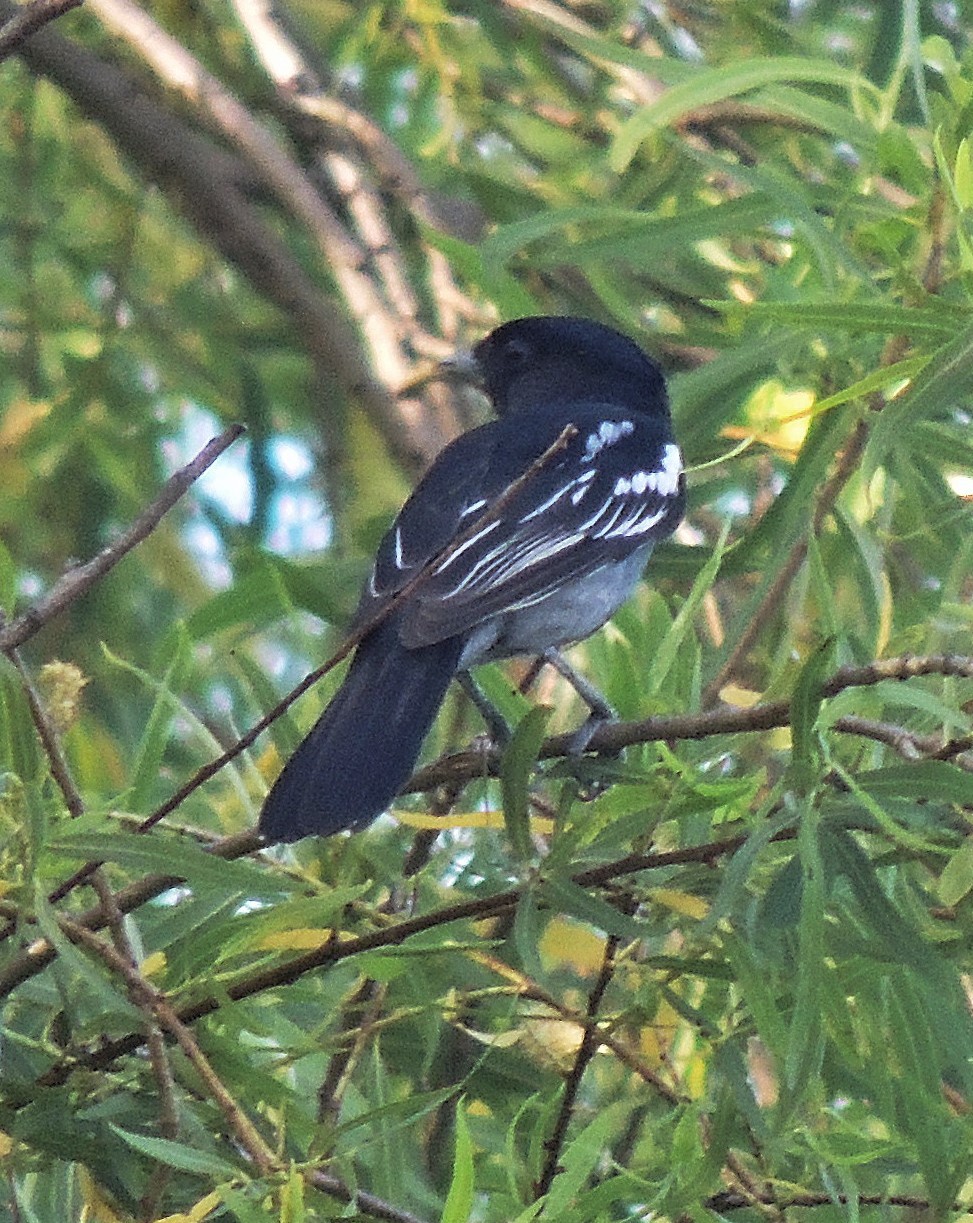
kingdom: Animalia
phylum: Chordata
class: Aves
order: Passeriformes
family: Cotingidae
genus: Pachyramphus
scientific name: Pachyramphus polychopterus
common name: White-winged becard
